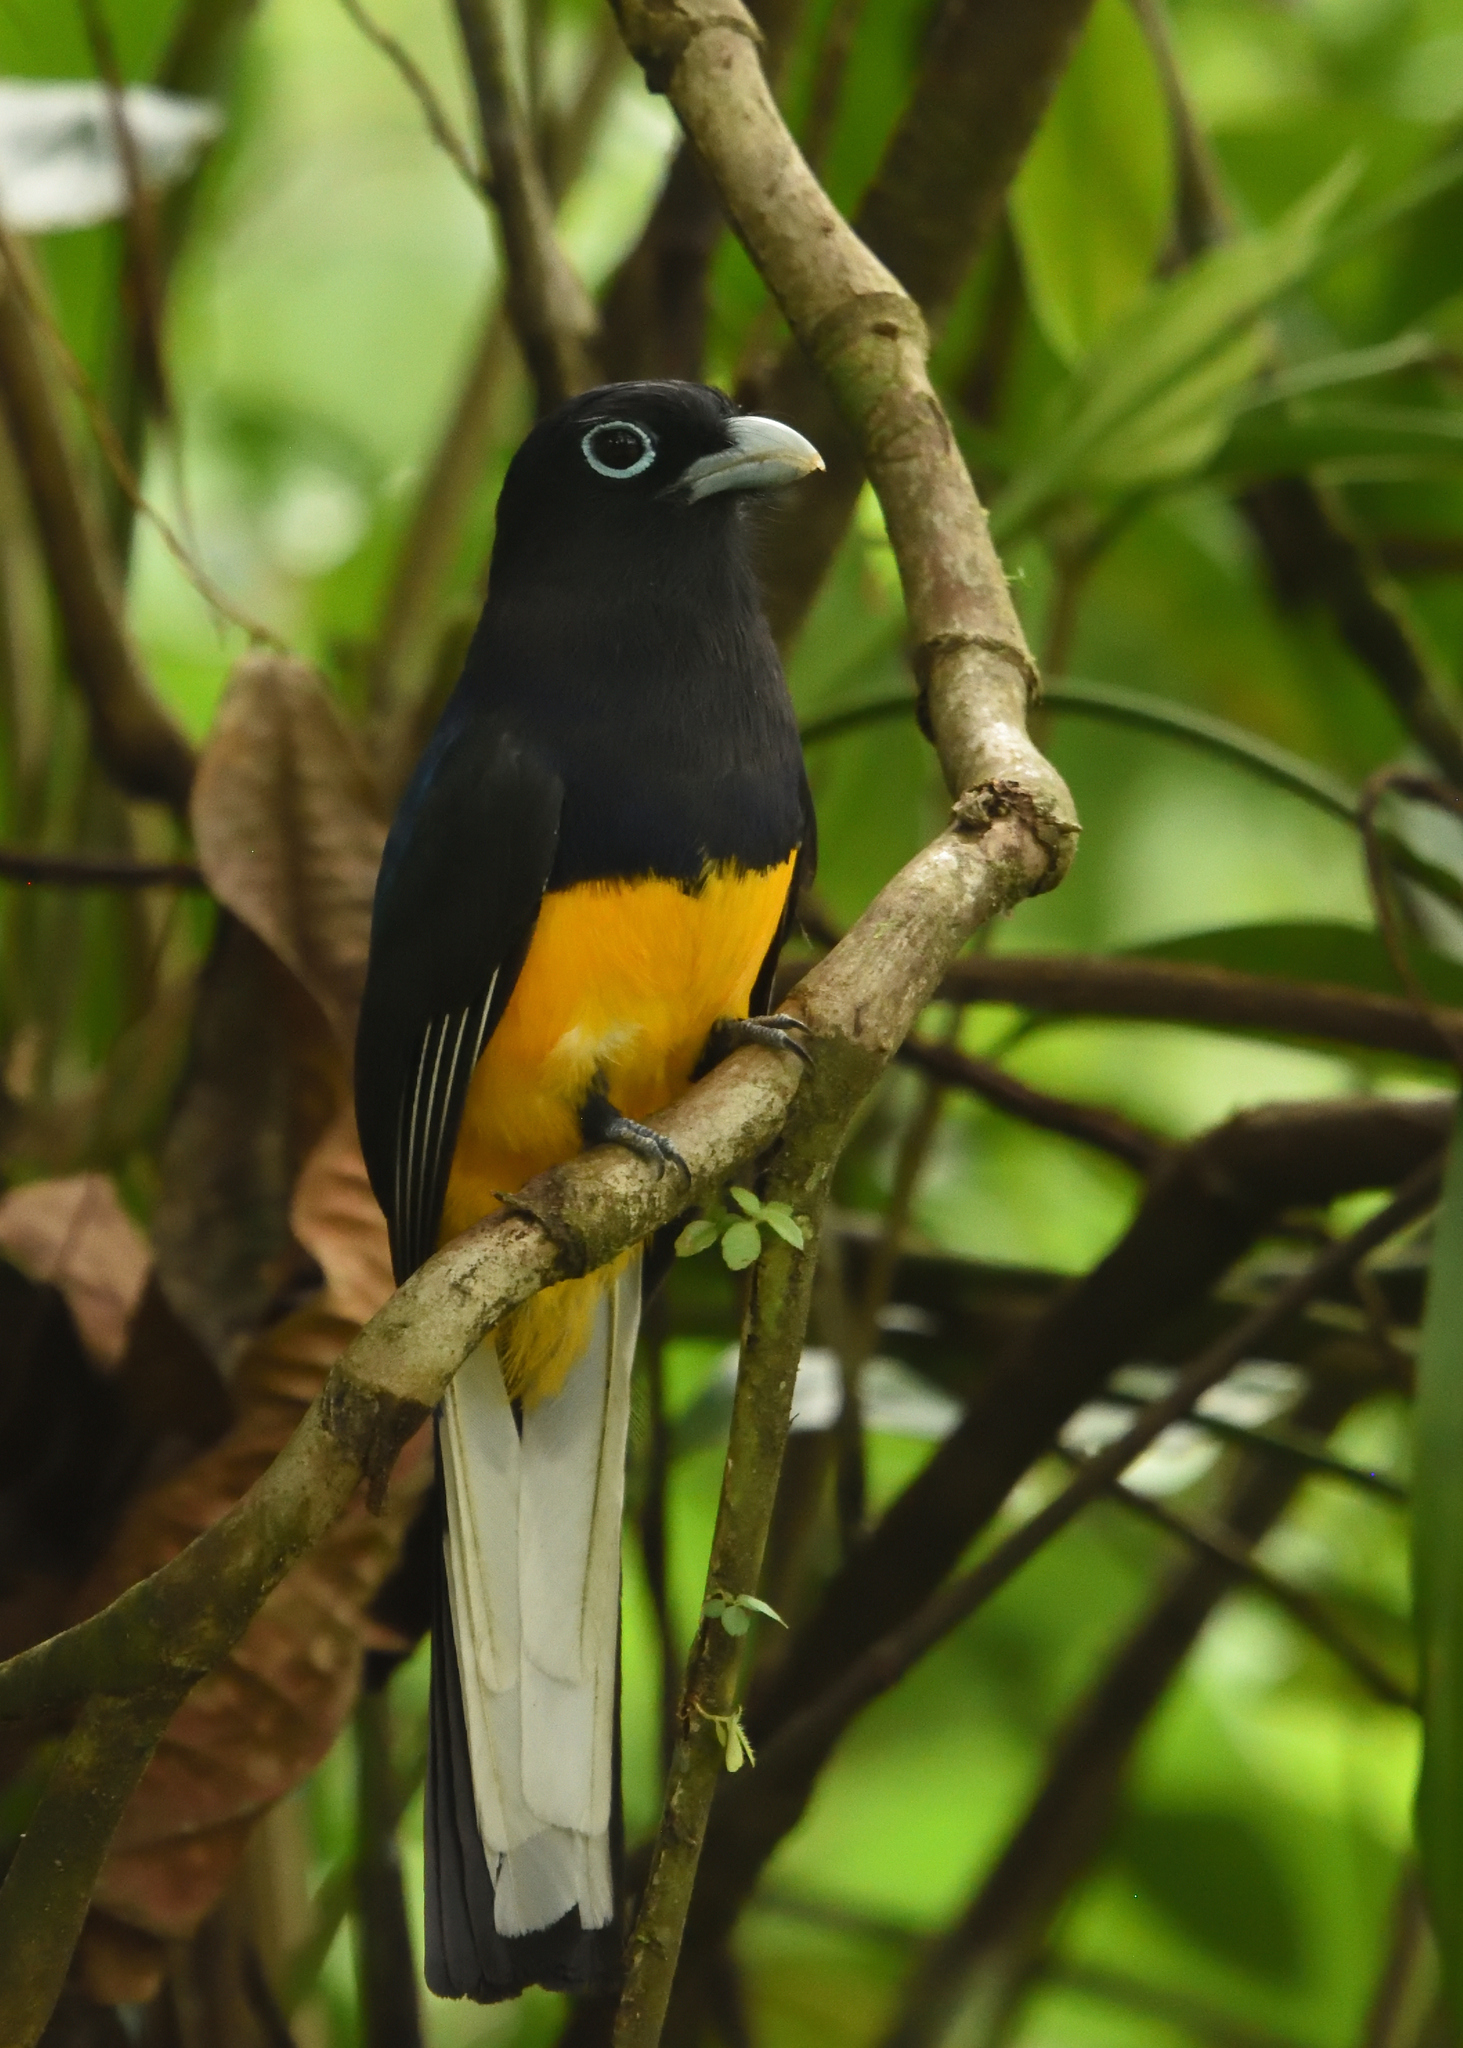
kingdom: Animalia
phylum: Chordata
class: Aves
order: Trogoniformes
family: Trogonidae
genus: Trogon
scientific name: Trogon chionurus
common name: White-tailed trogon
